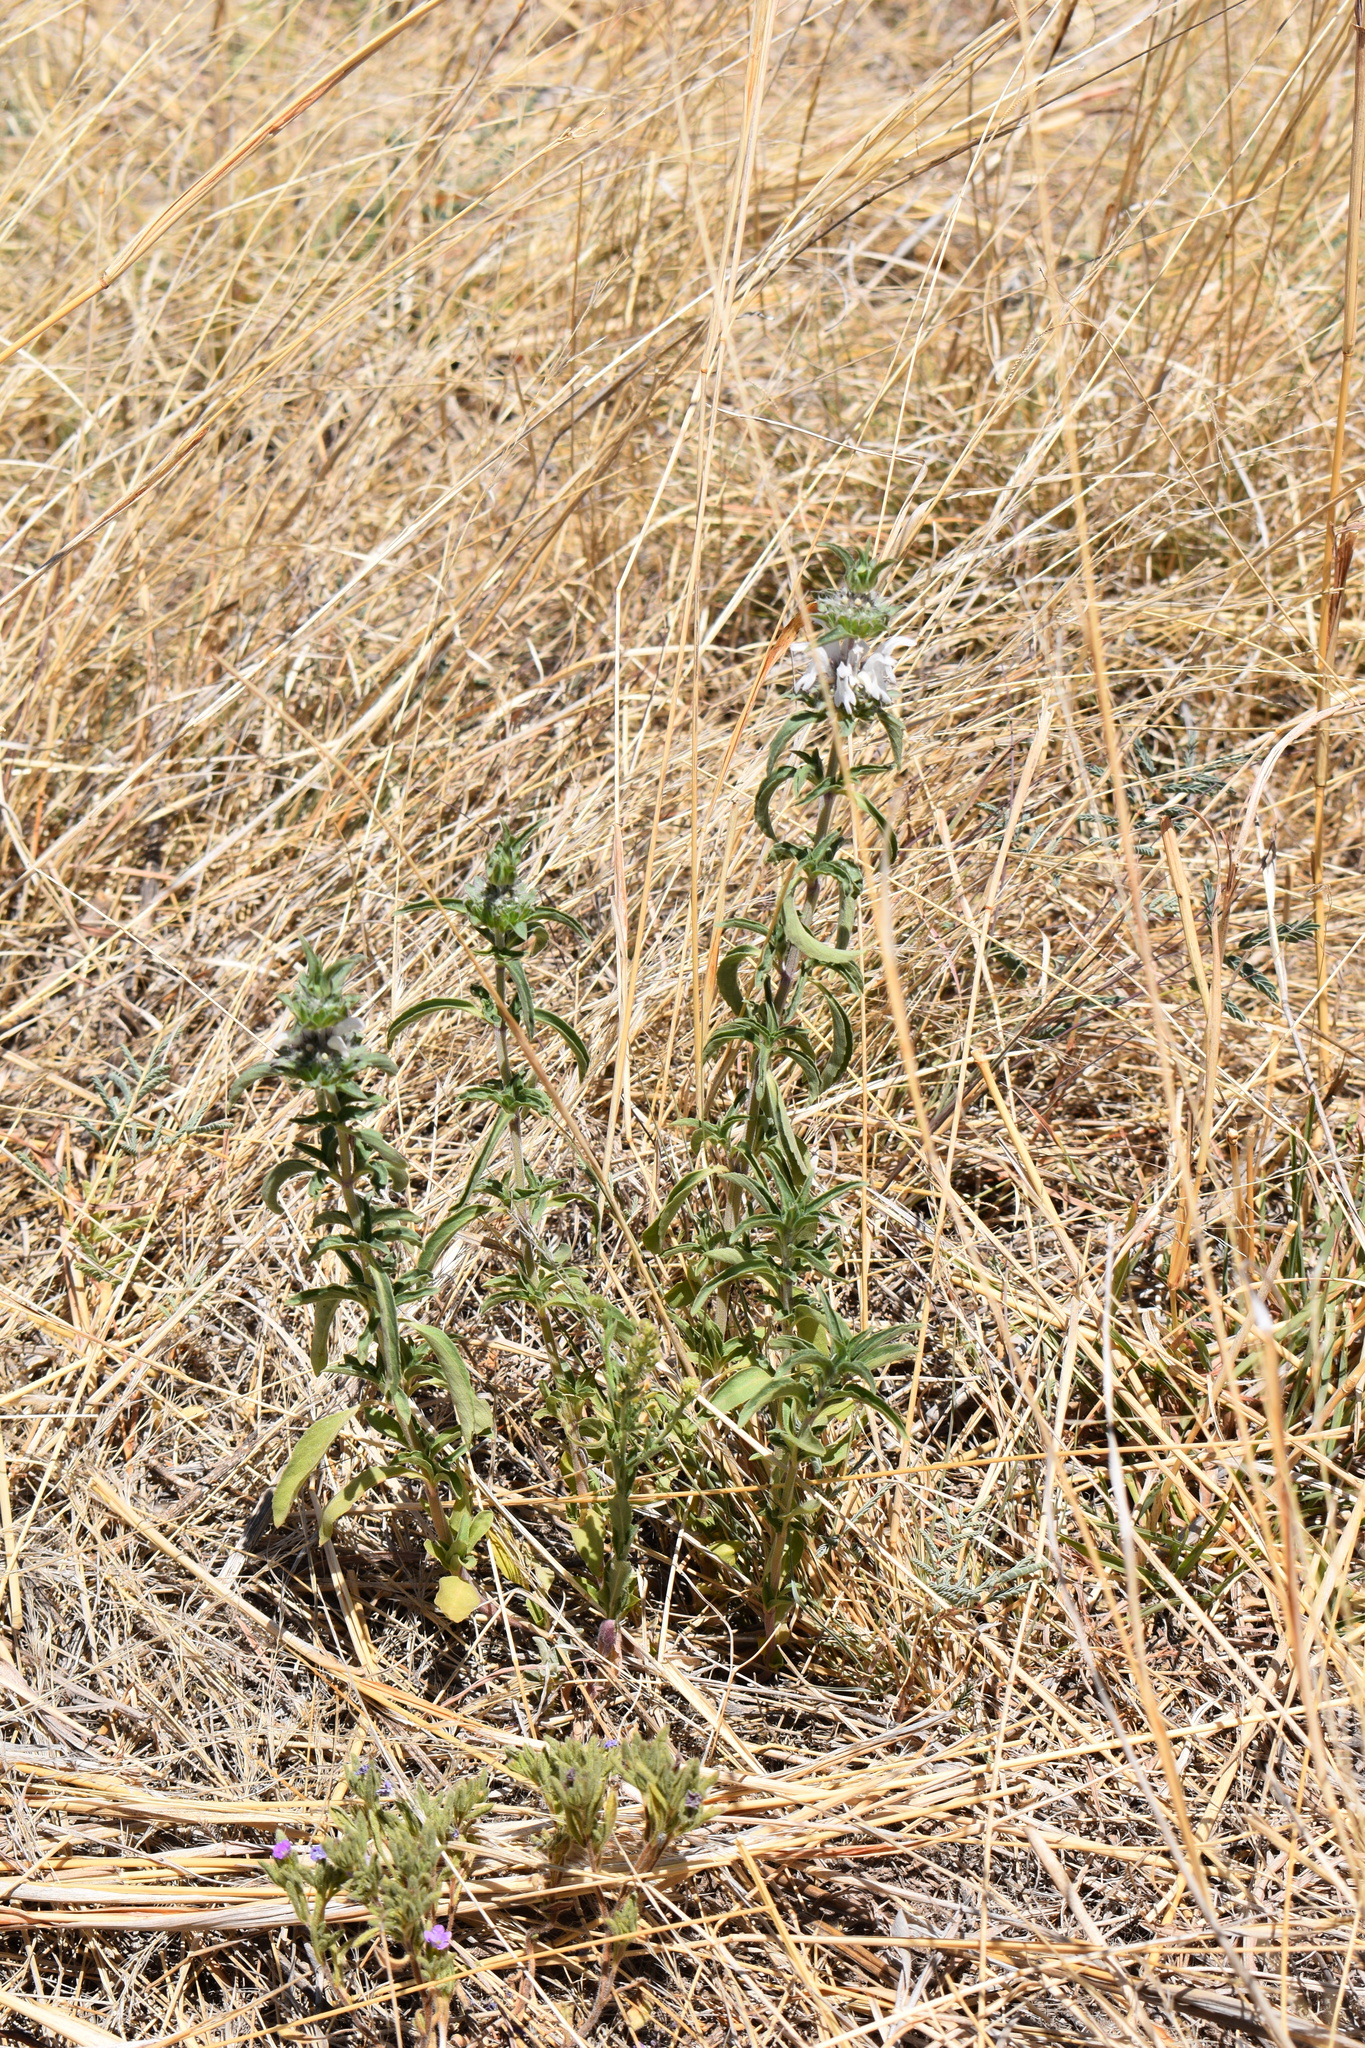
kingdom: Plantae
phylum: Tracheophyta
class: Magnoliopsida
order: Lamiales
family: Lamiaceae
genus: Monarda
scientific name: Monarda pectinata
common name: Plains beebalm
